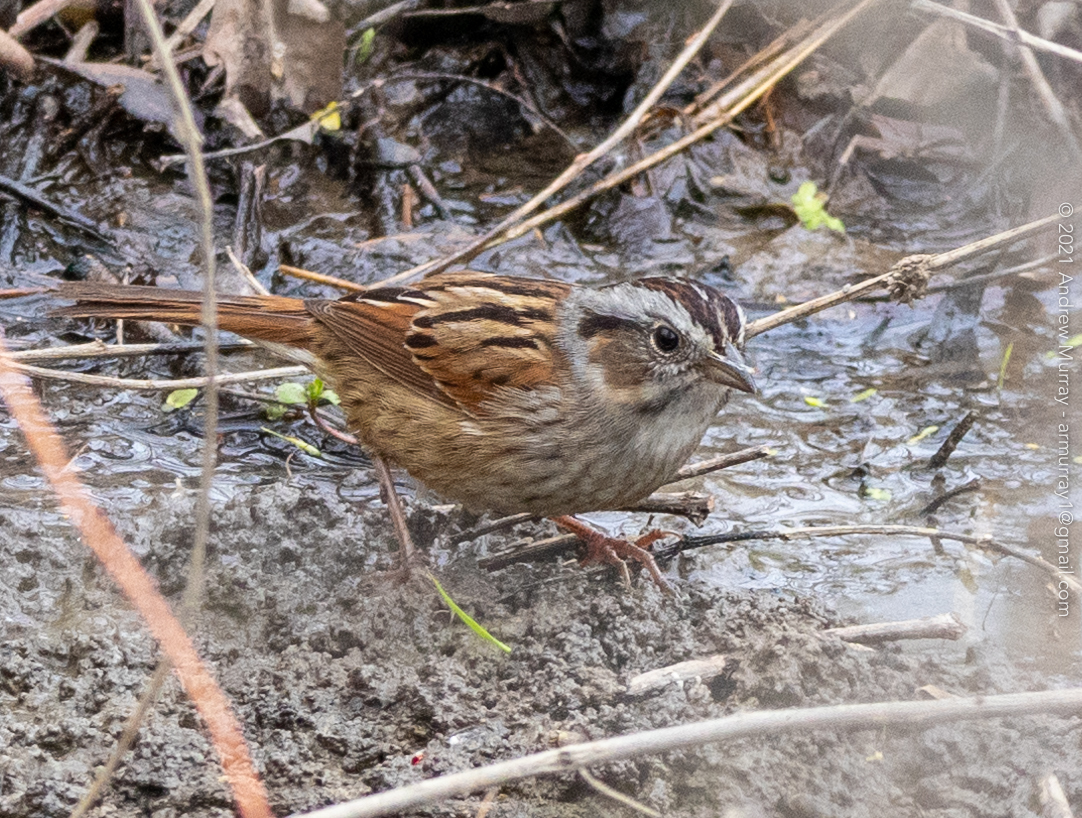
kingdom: Animalia
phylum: Chordata
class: Aves
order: Passeriformes
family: Passerellidae
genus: Melospiza
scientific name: Melospiza georgiana
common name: Swamp sparrow
